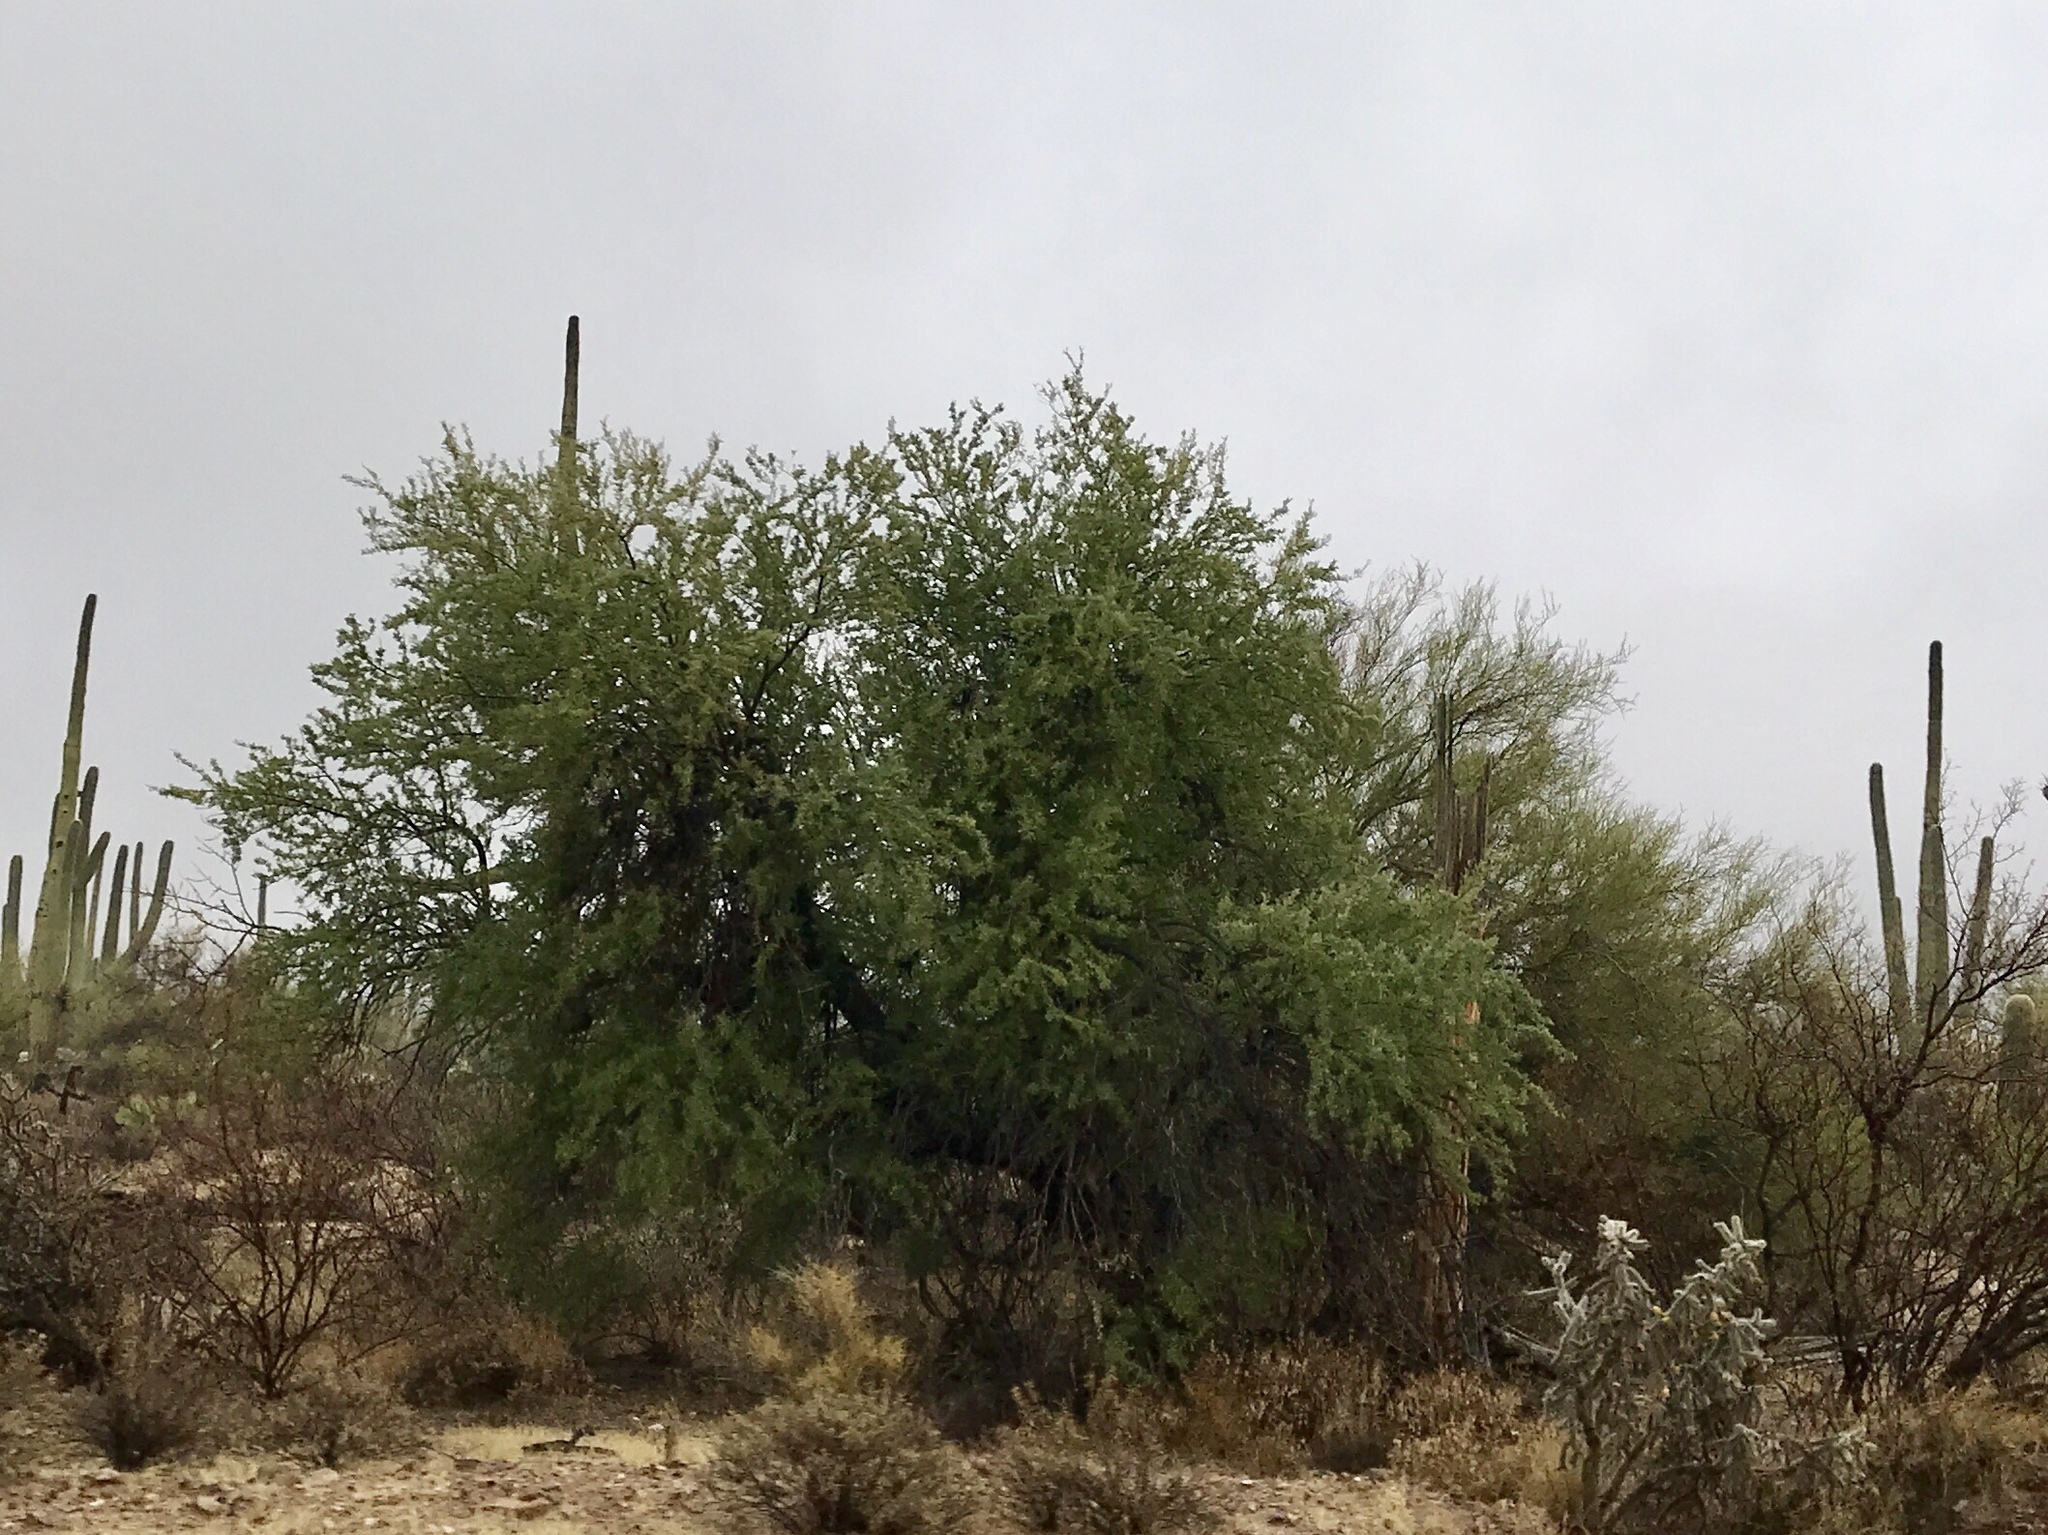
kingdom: Plantae
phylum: Tracheophyta
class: Magnoliopsida
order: Fabales
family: Fabaceae
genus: Olneya
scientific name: Olneya tesota
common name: Desert ironwood
